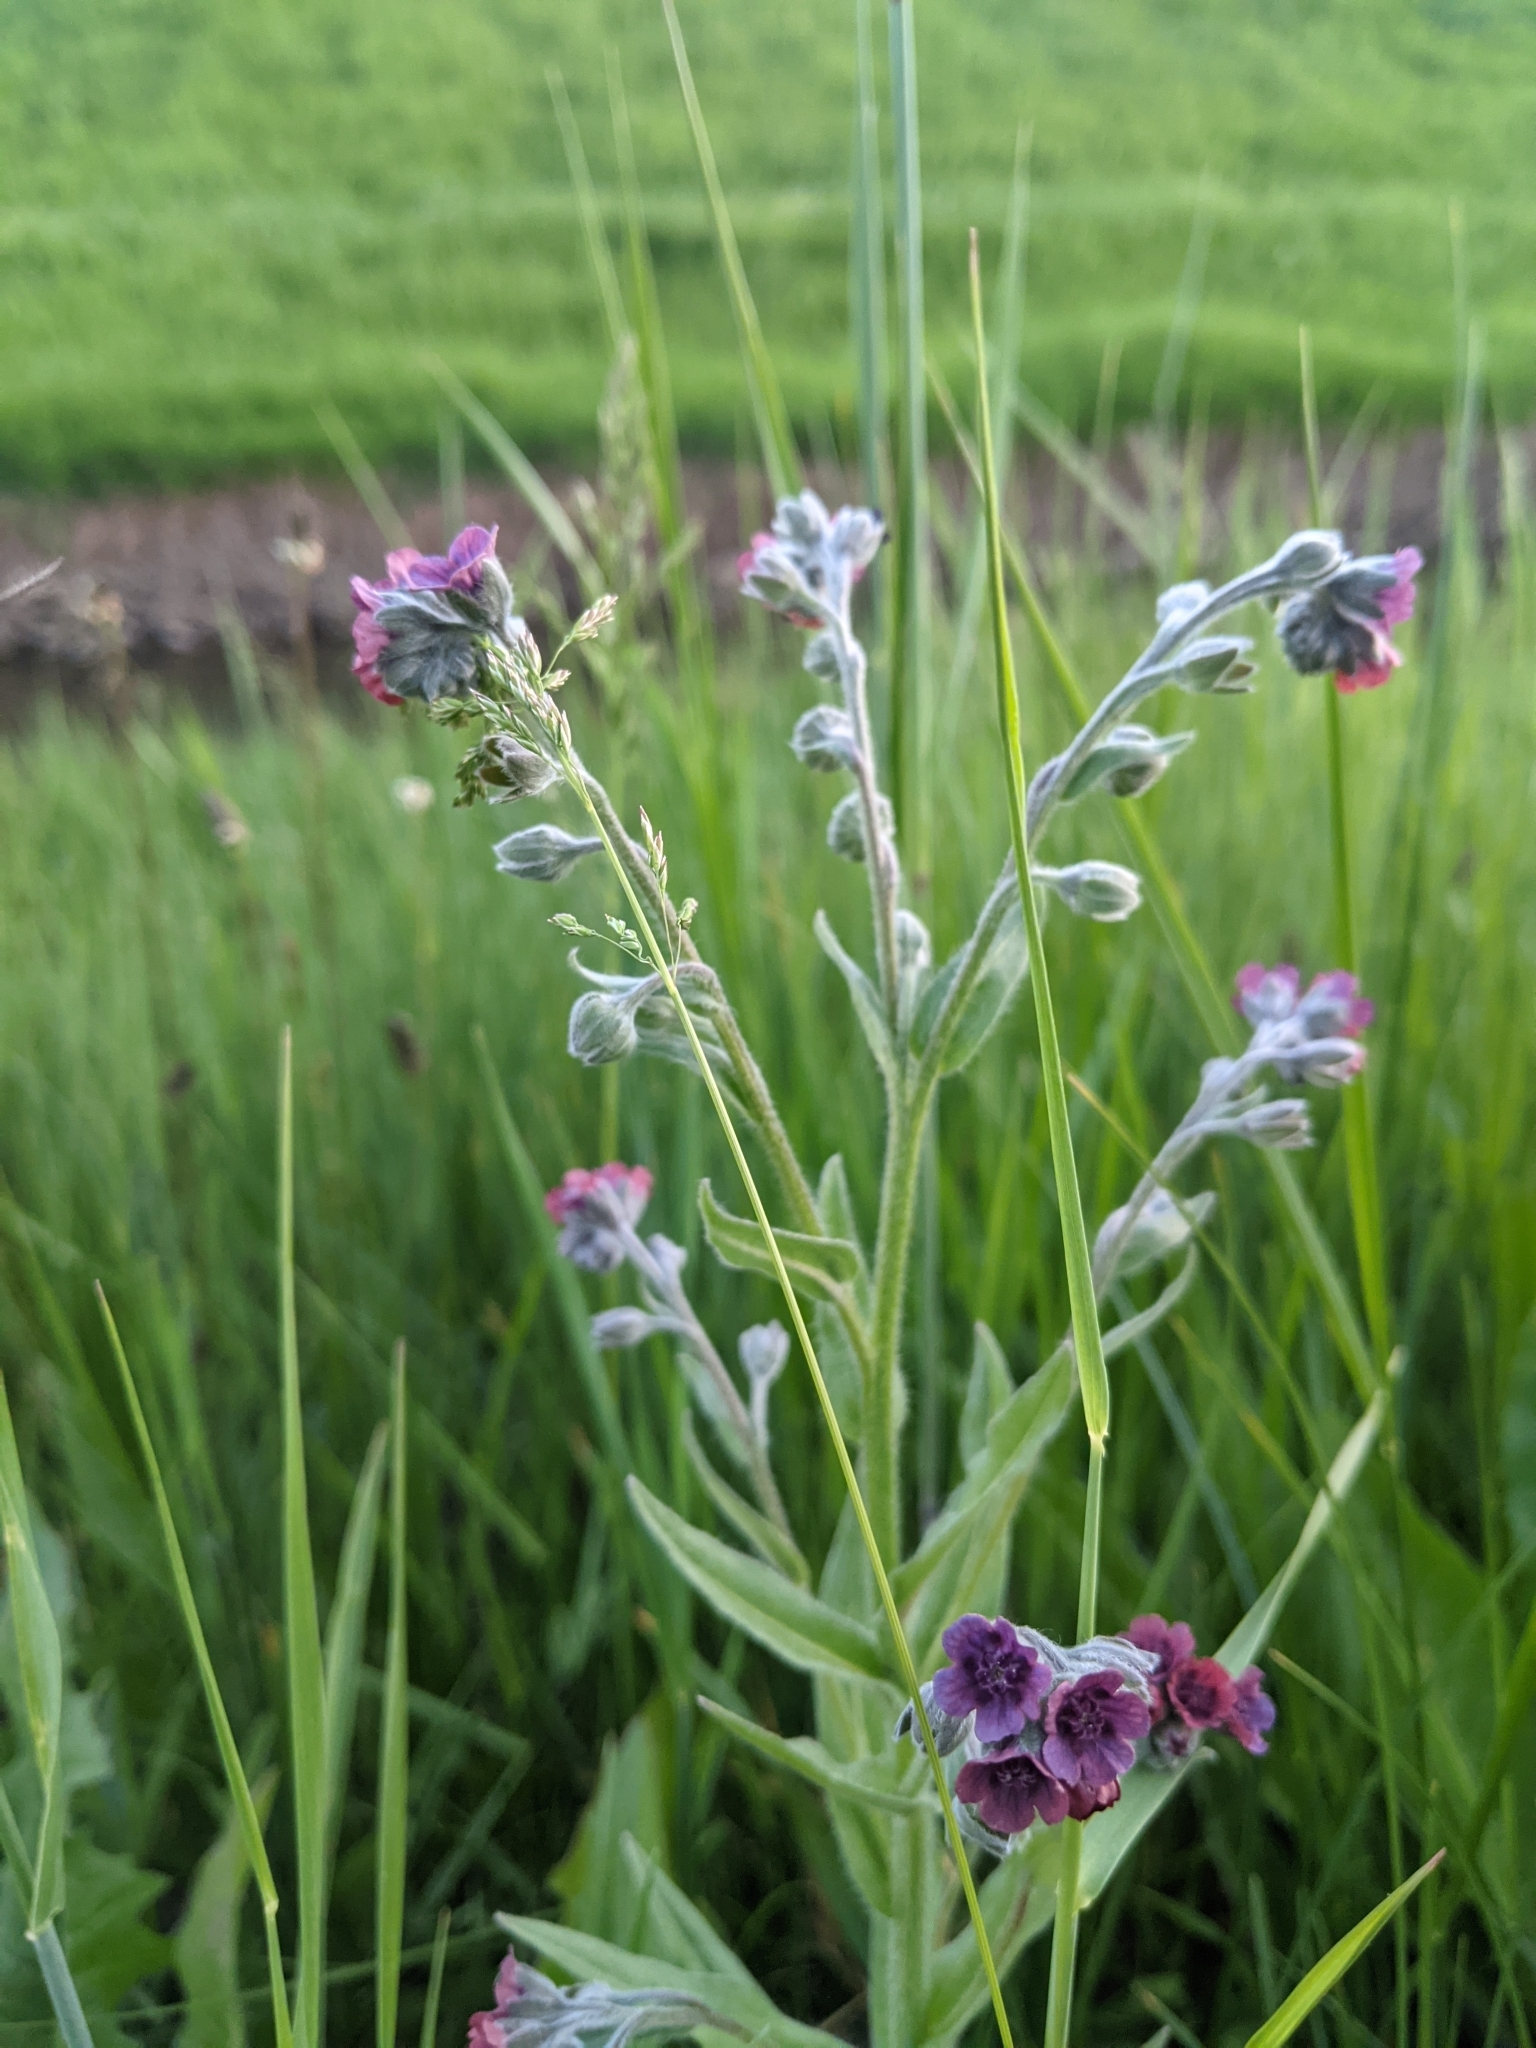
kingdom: Plantae
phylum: Tracheophyta
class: Magnoliopsida
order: Boraginales
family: Boraginaceae
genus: Cynoglossum
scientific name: Cynoglossum officinale
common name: Hound's-tongue
